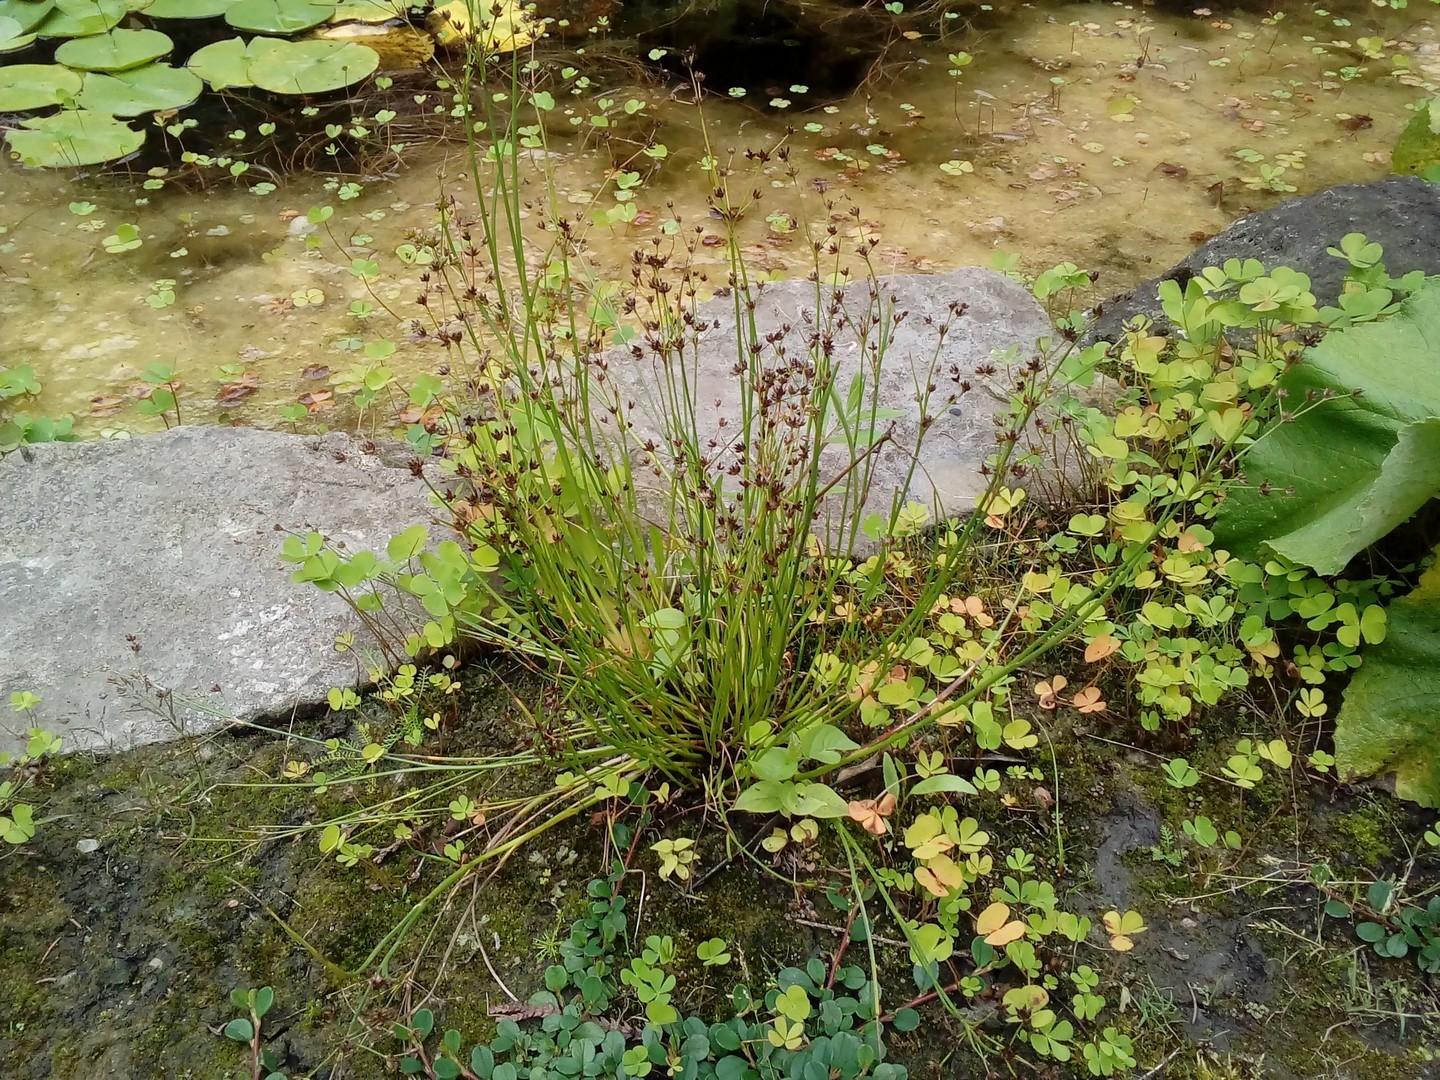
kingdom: Plantae
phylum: Tracheophyta
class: Liliopsida
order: Poales
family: Juncaceae
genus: Juncus
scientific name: Juncus articulatus
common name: Jointed rush
